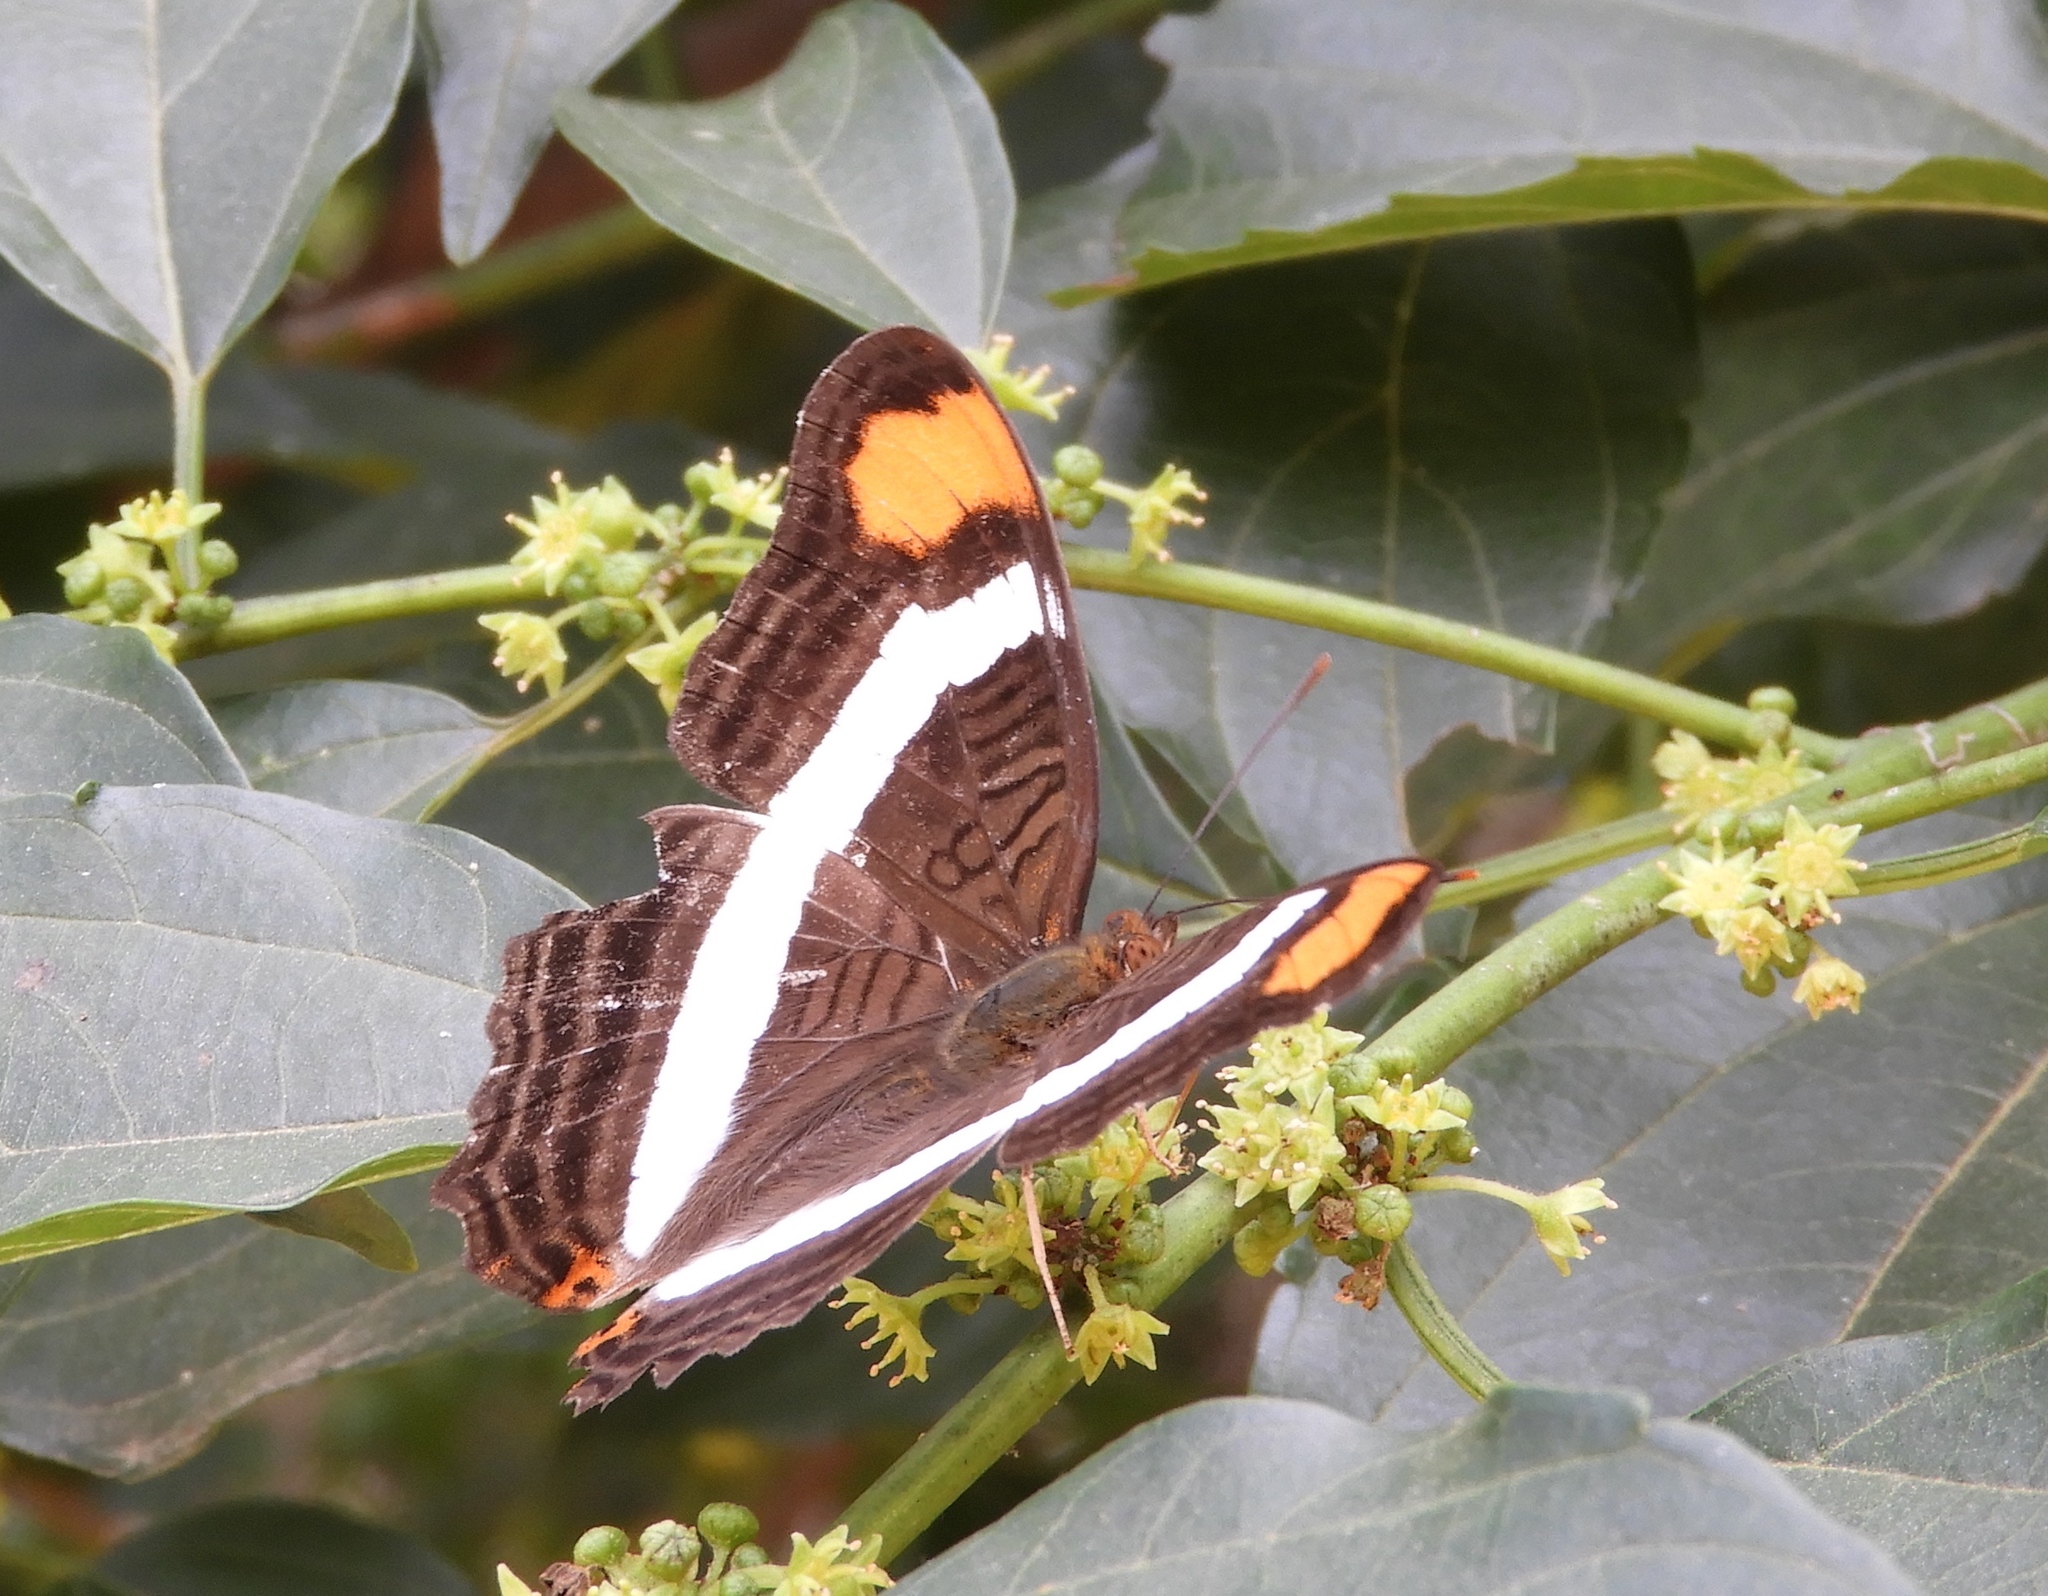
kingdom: Animalia
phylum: Arthropoda
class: Insecta
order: Lepidoptera
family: Nymphalidae
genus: Limenitis
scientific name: Limenitis fessonia
